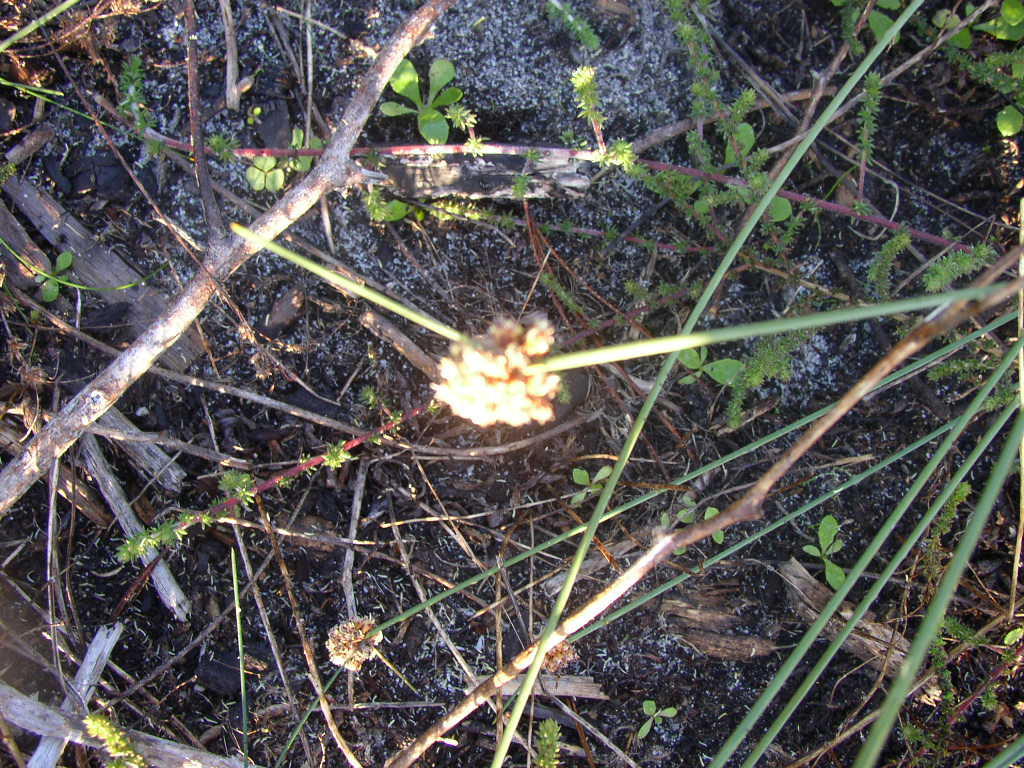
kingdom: Plantae
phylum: Tracheophyta
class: Liliopsida
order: Poales
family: Cyperaceae
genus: Ficinia
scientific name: Ficinia nodosa
